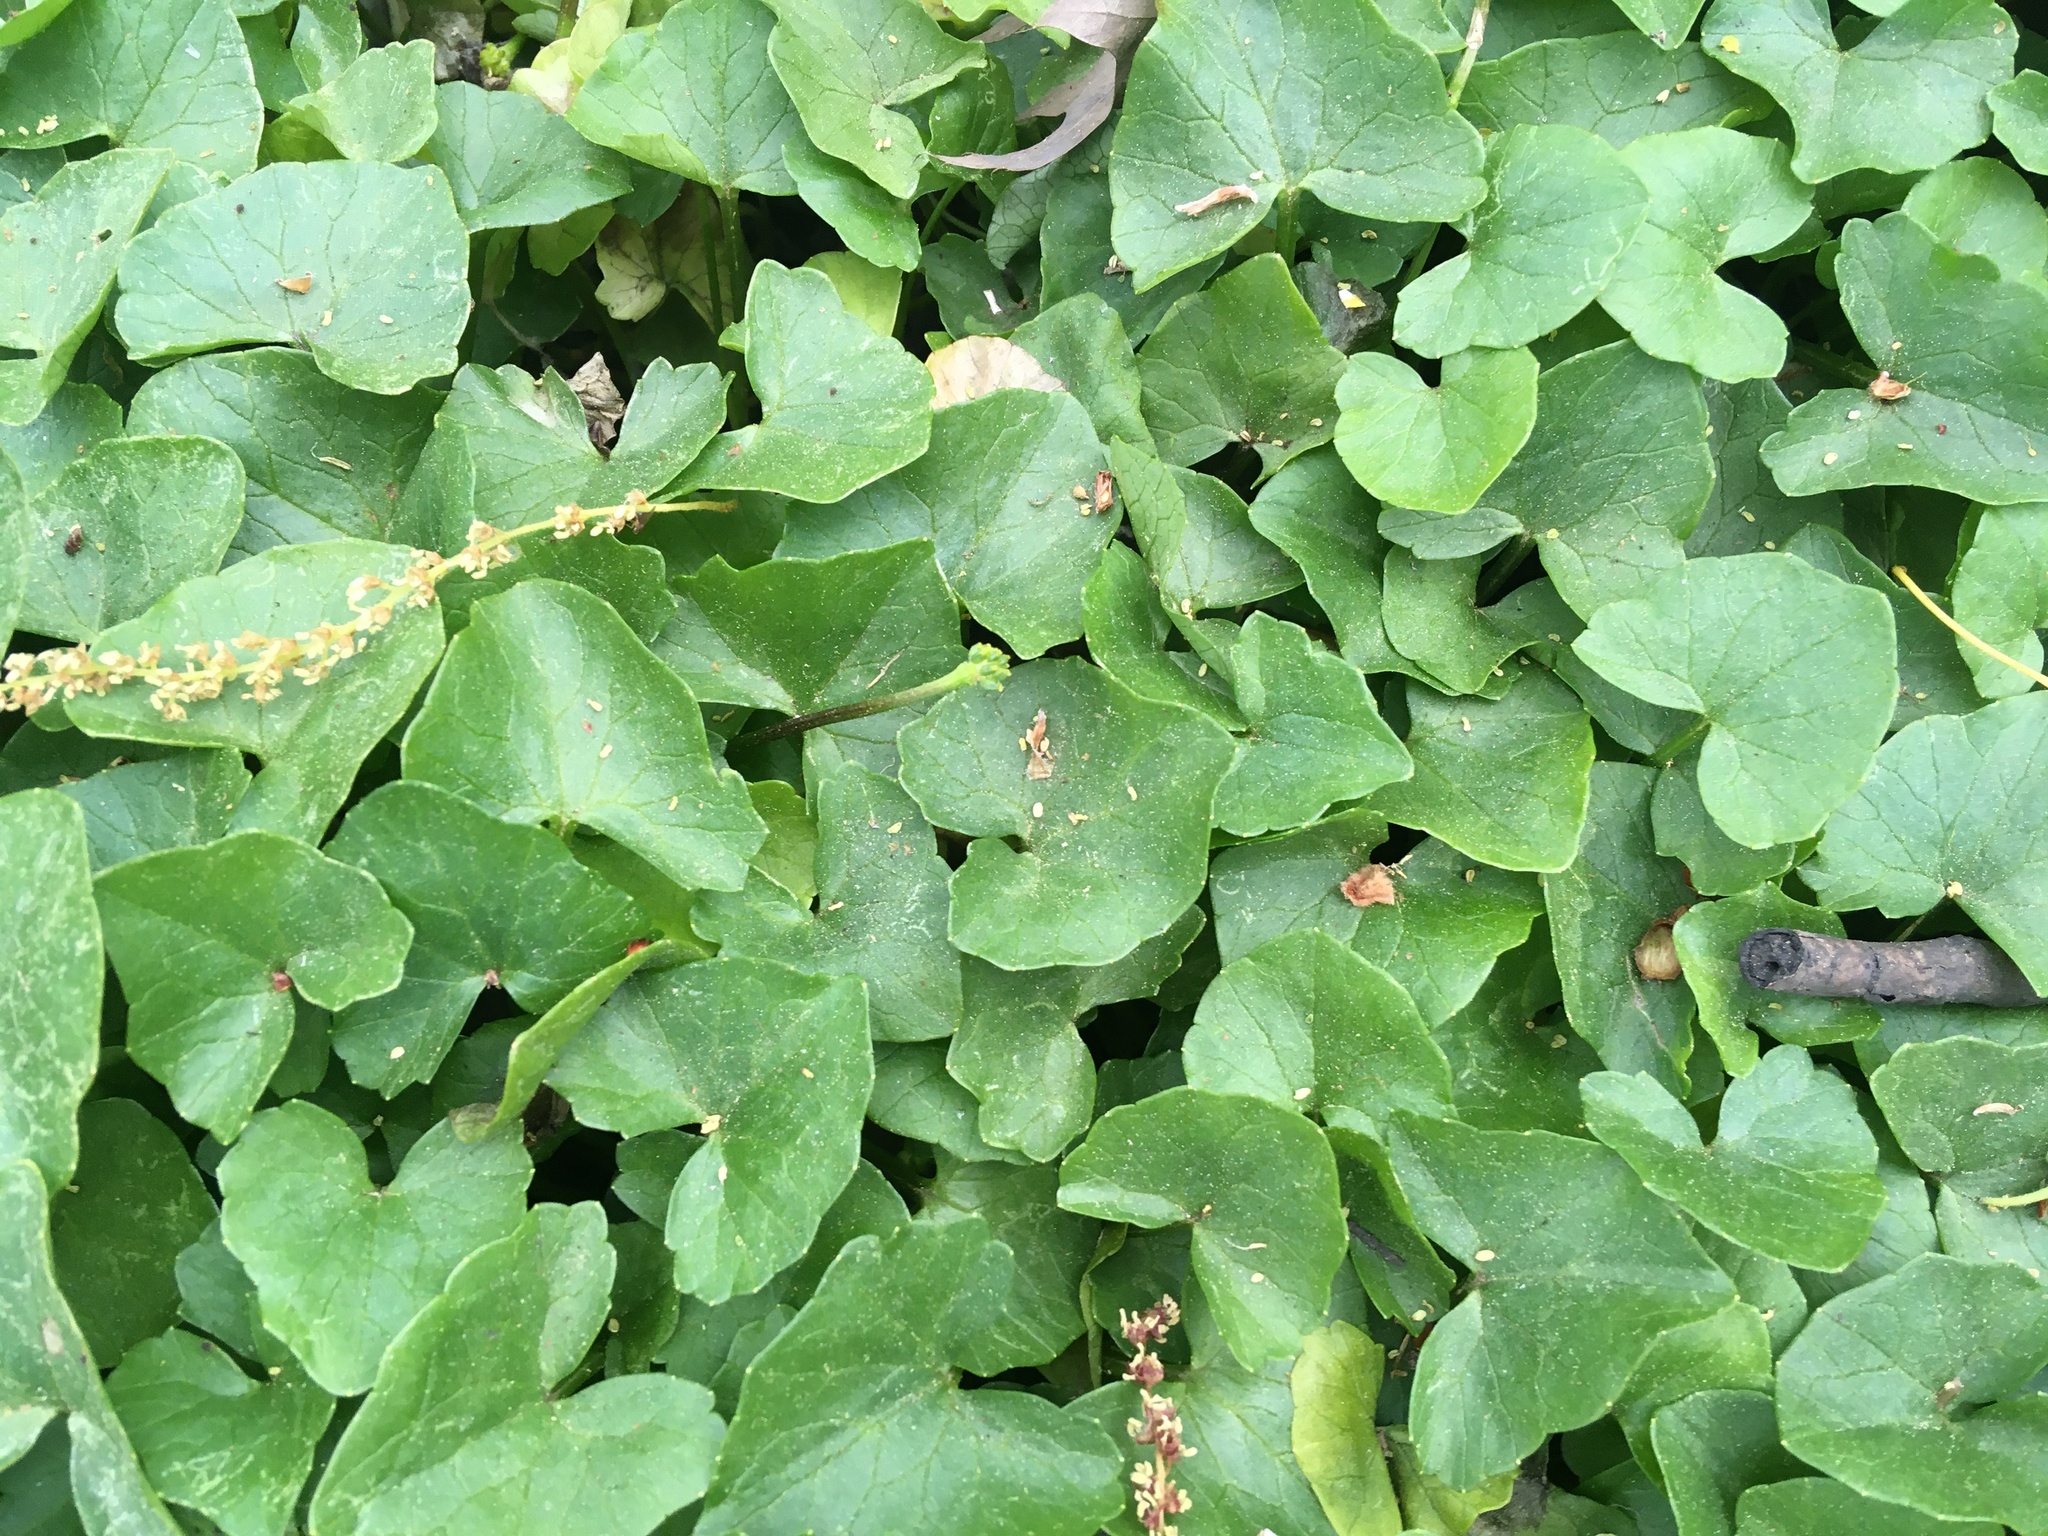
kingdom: Plantae
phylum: Tracheophyta
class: Magnoliopsida
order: Ranunculales
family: Ranunculaceae
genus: Ficaria
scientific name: Ficaria verna
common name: Lesser celandine
